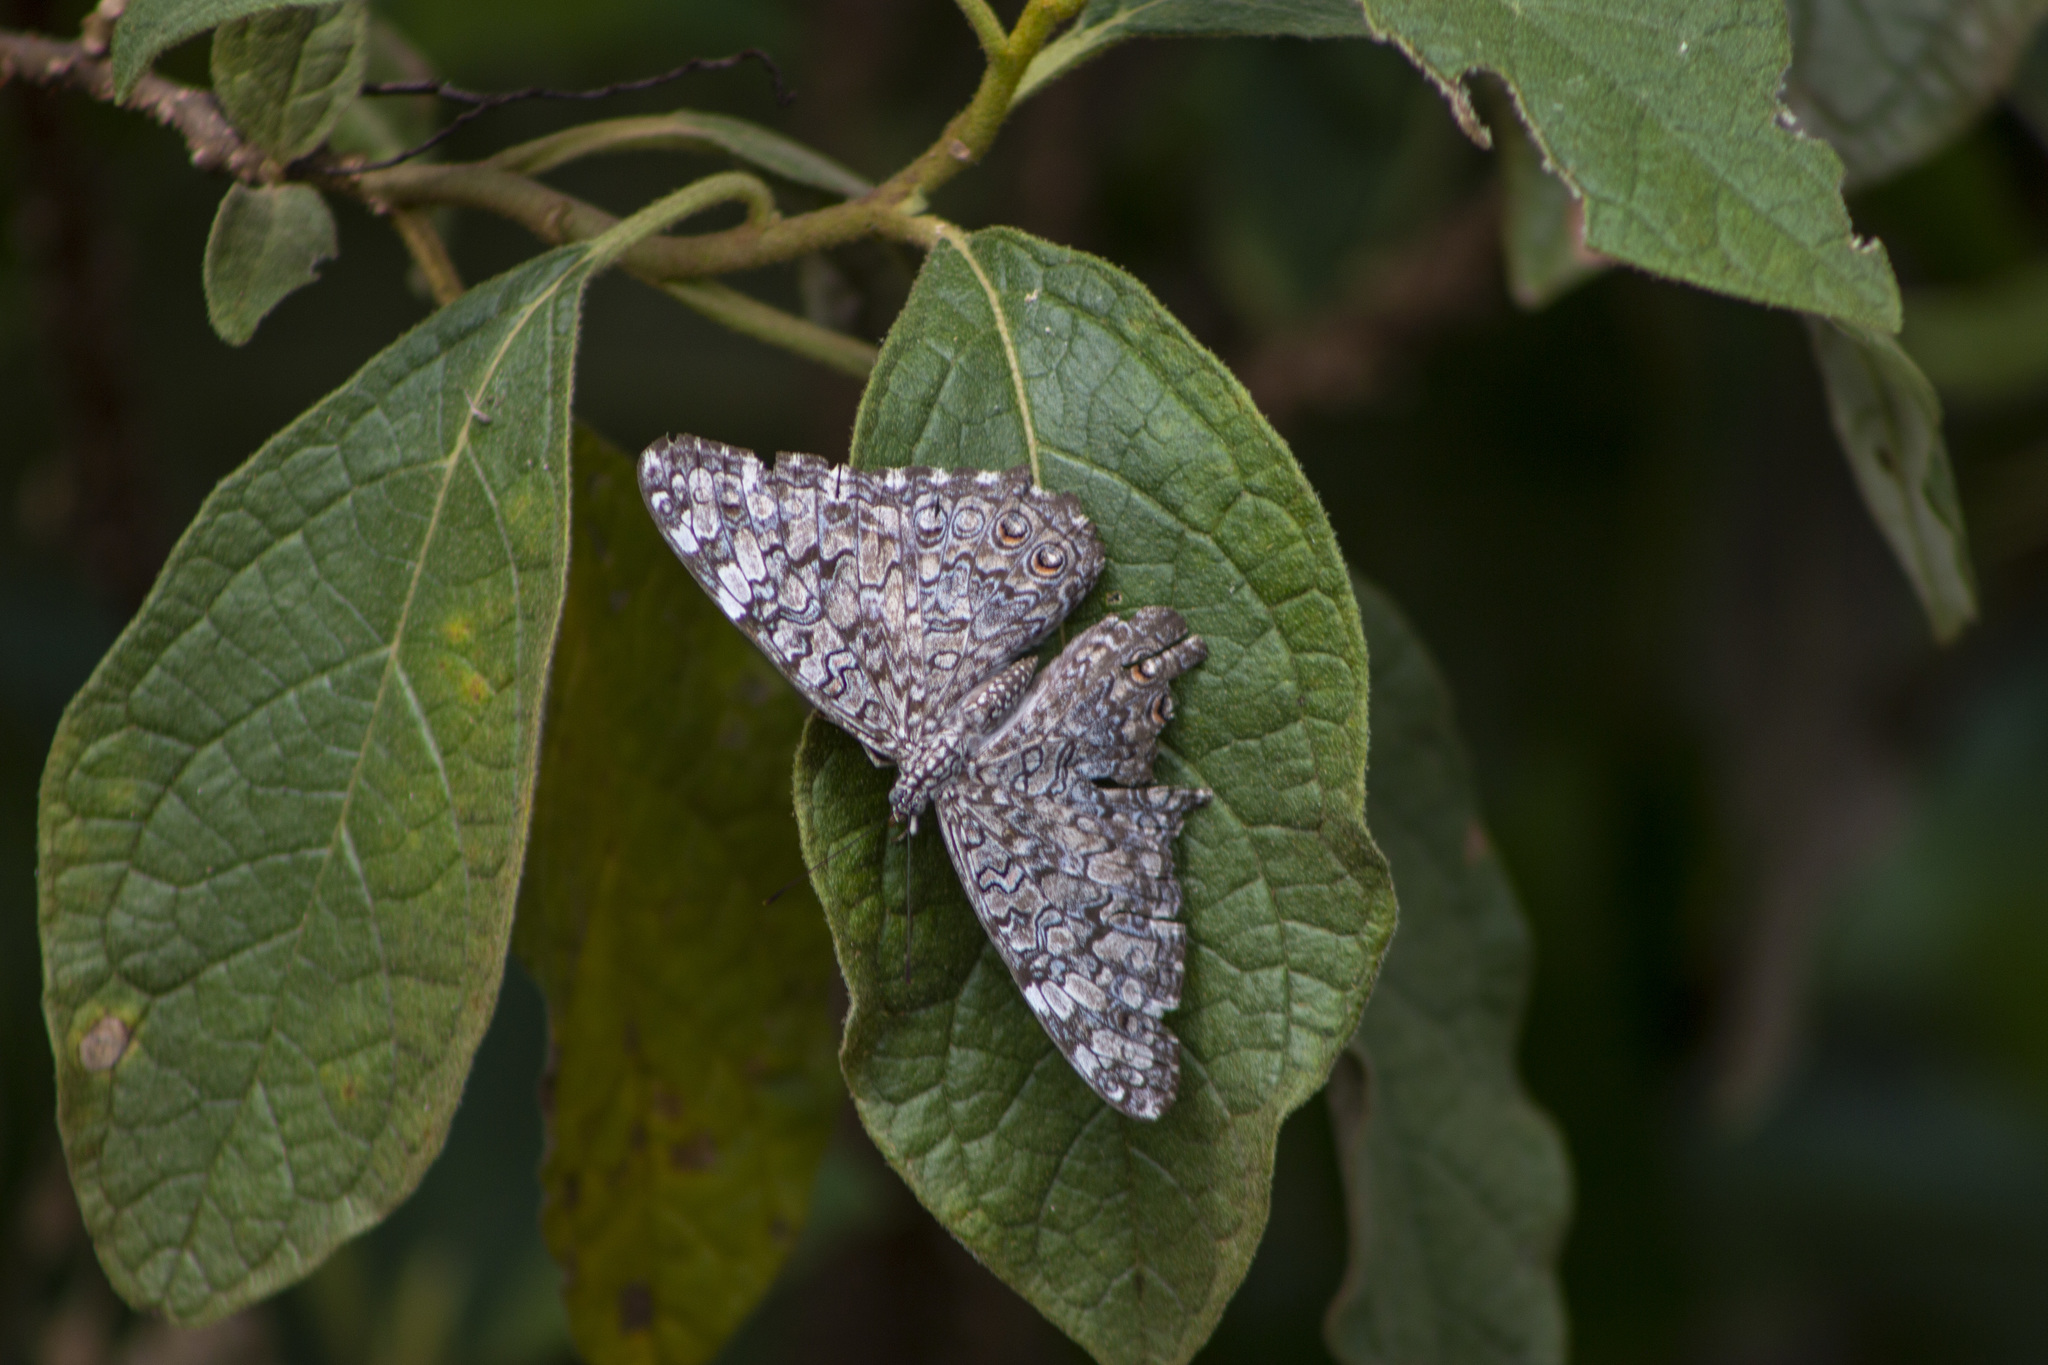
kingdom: Animalia
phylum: Arthropoda
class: Insecta
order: Lepidoptera
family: Nymphalidae
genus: Hamadryas
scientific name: Hamadryas februa
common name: Gray cracker
